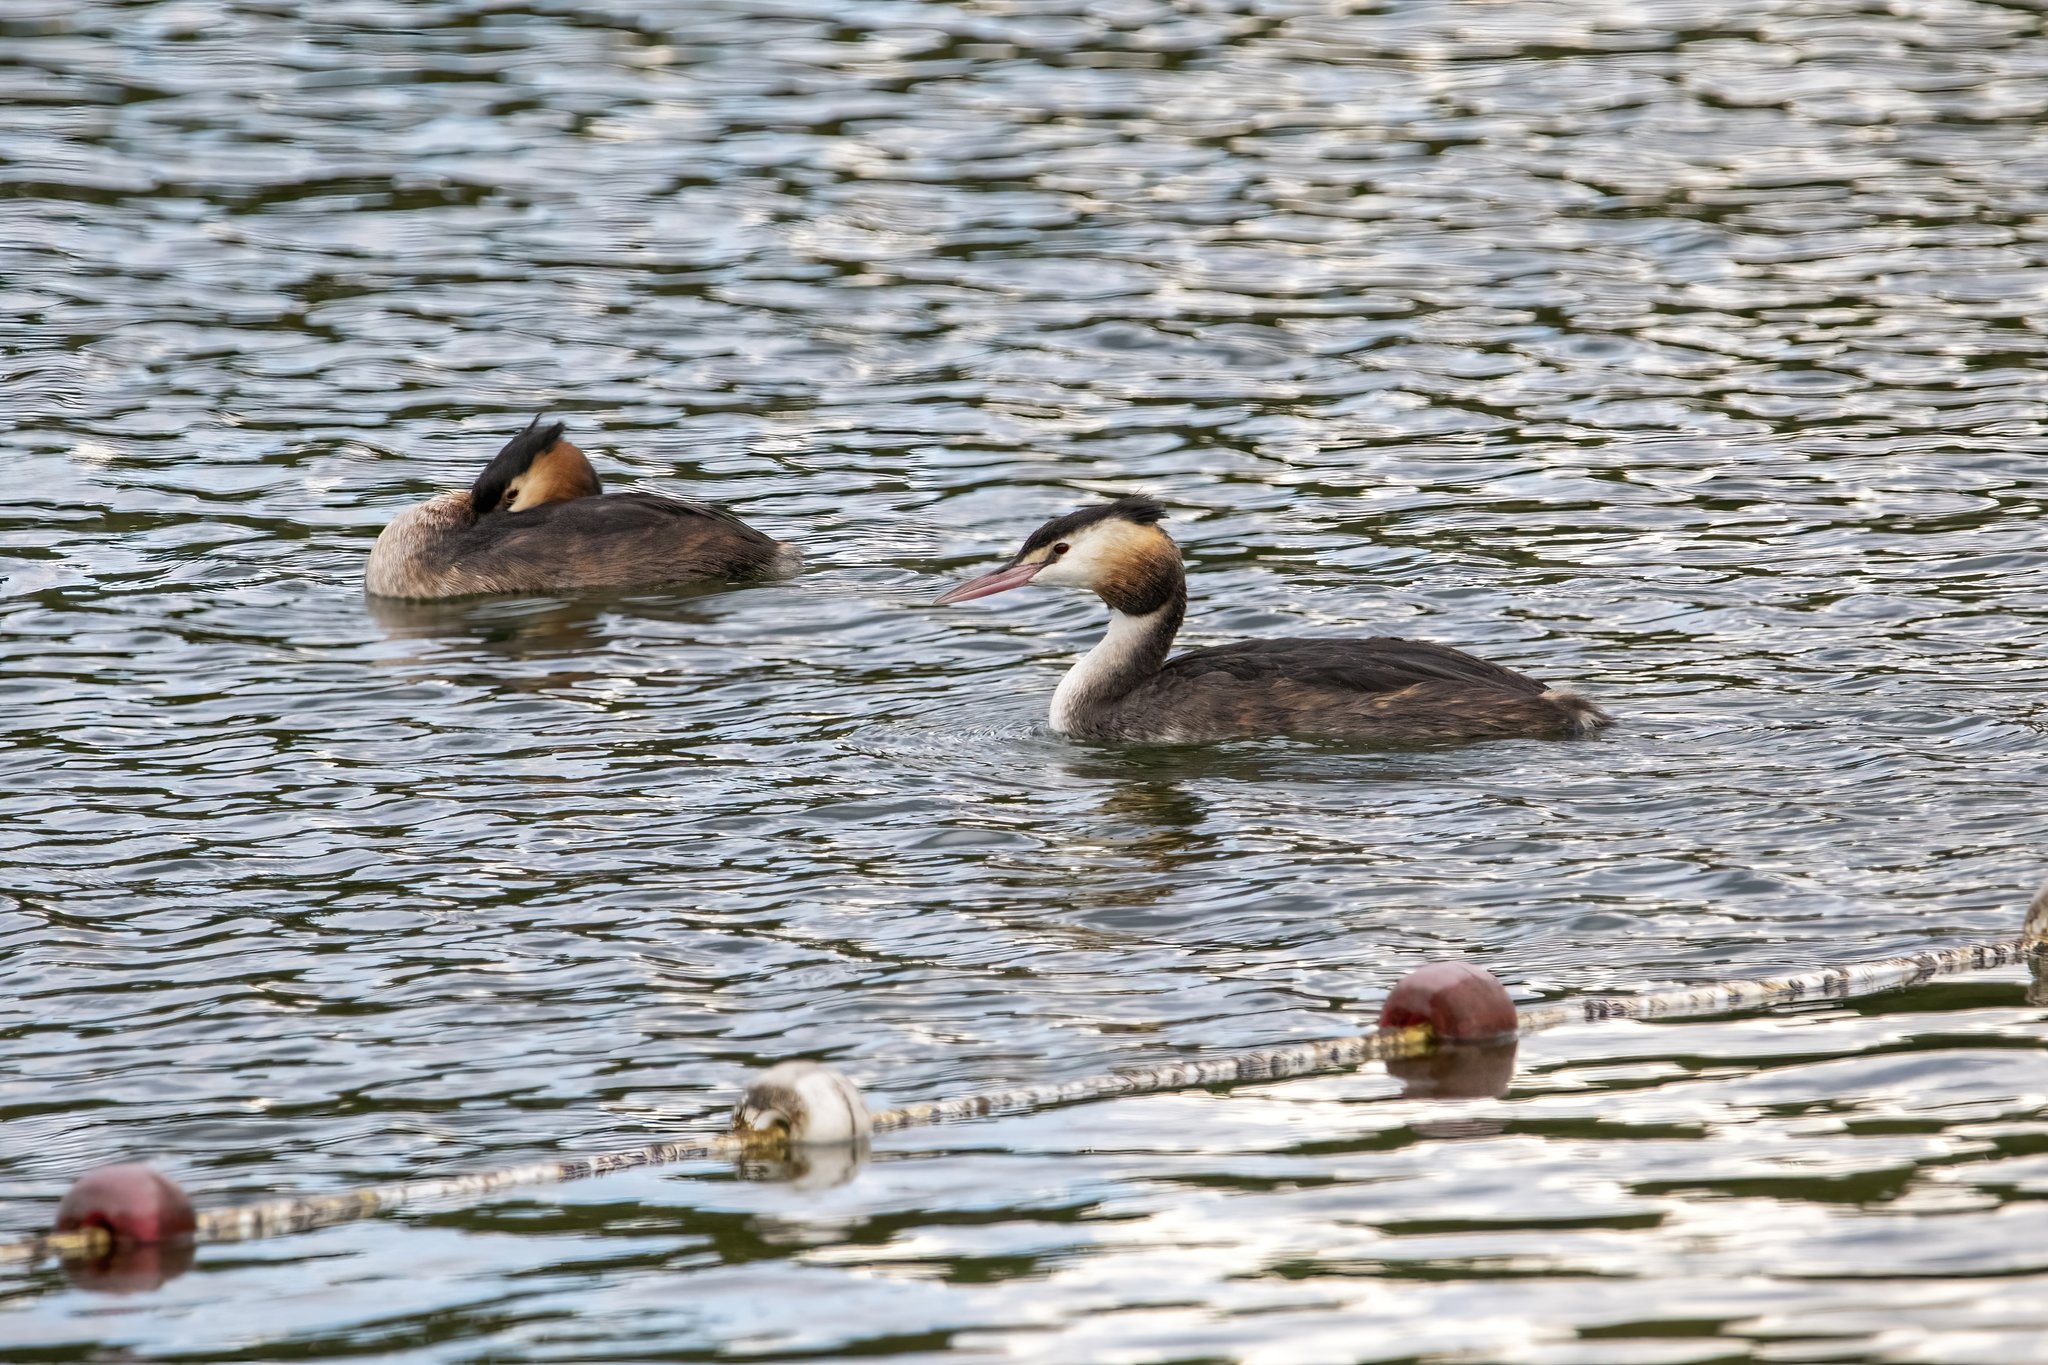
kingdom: Animalia
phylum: Chordata
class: Aves
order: Podicipediformes
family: Podicipedidae
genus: Podiceps
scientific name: Podiceps cristatus
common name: Great crested grebe
